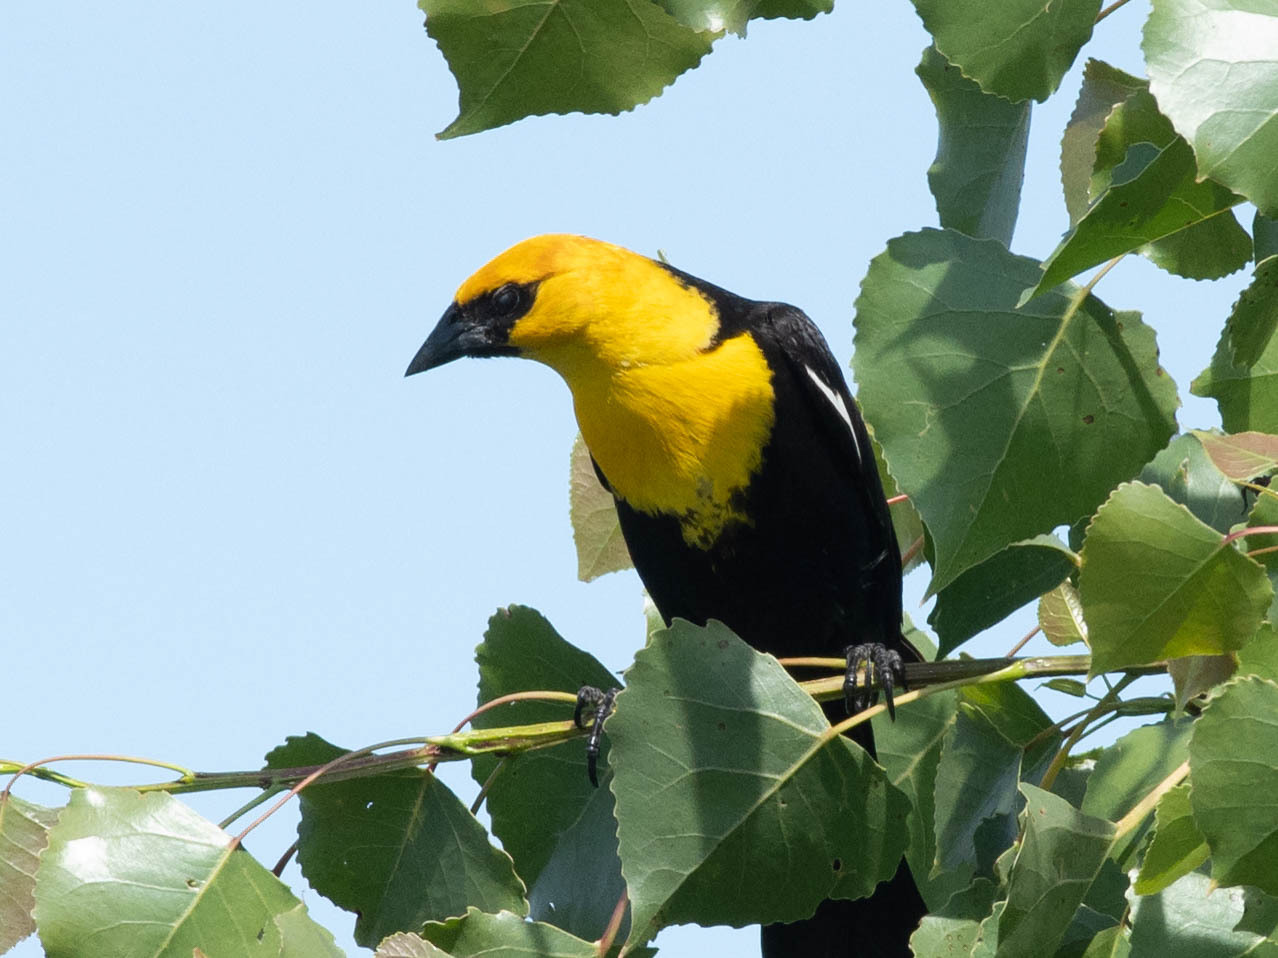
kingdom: Animalia
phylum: Chordata
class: Aves
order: Passeriformes
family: Icteridae
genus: Xanthocephalus
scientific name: Xanthocephalus xanthocephalus
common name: Yellow-headed blackbird
